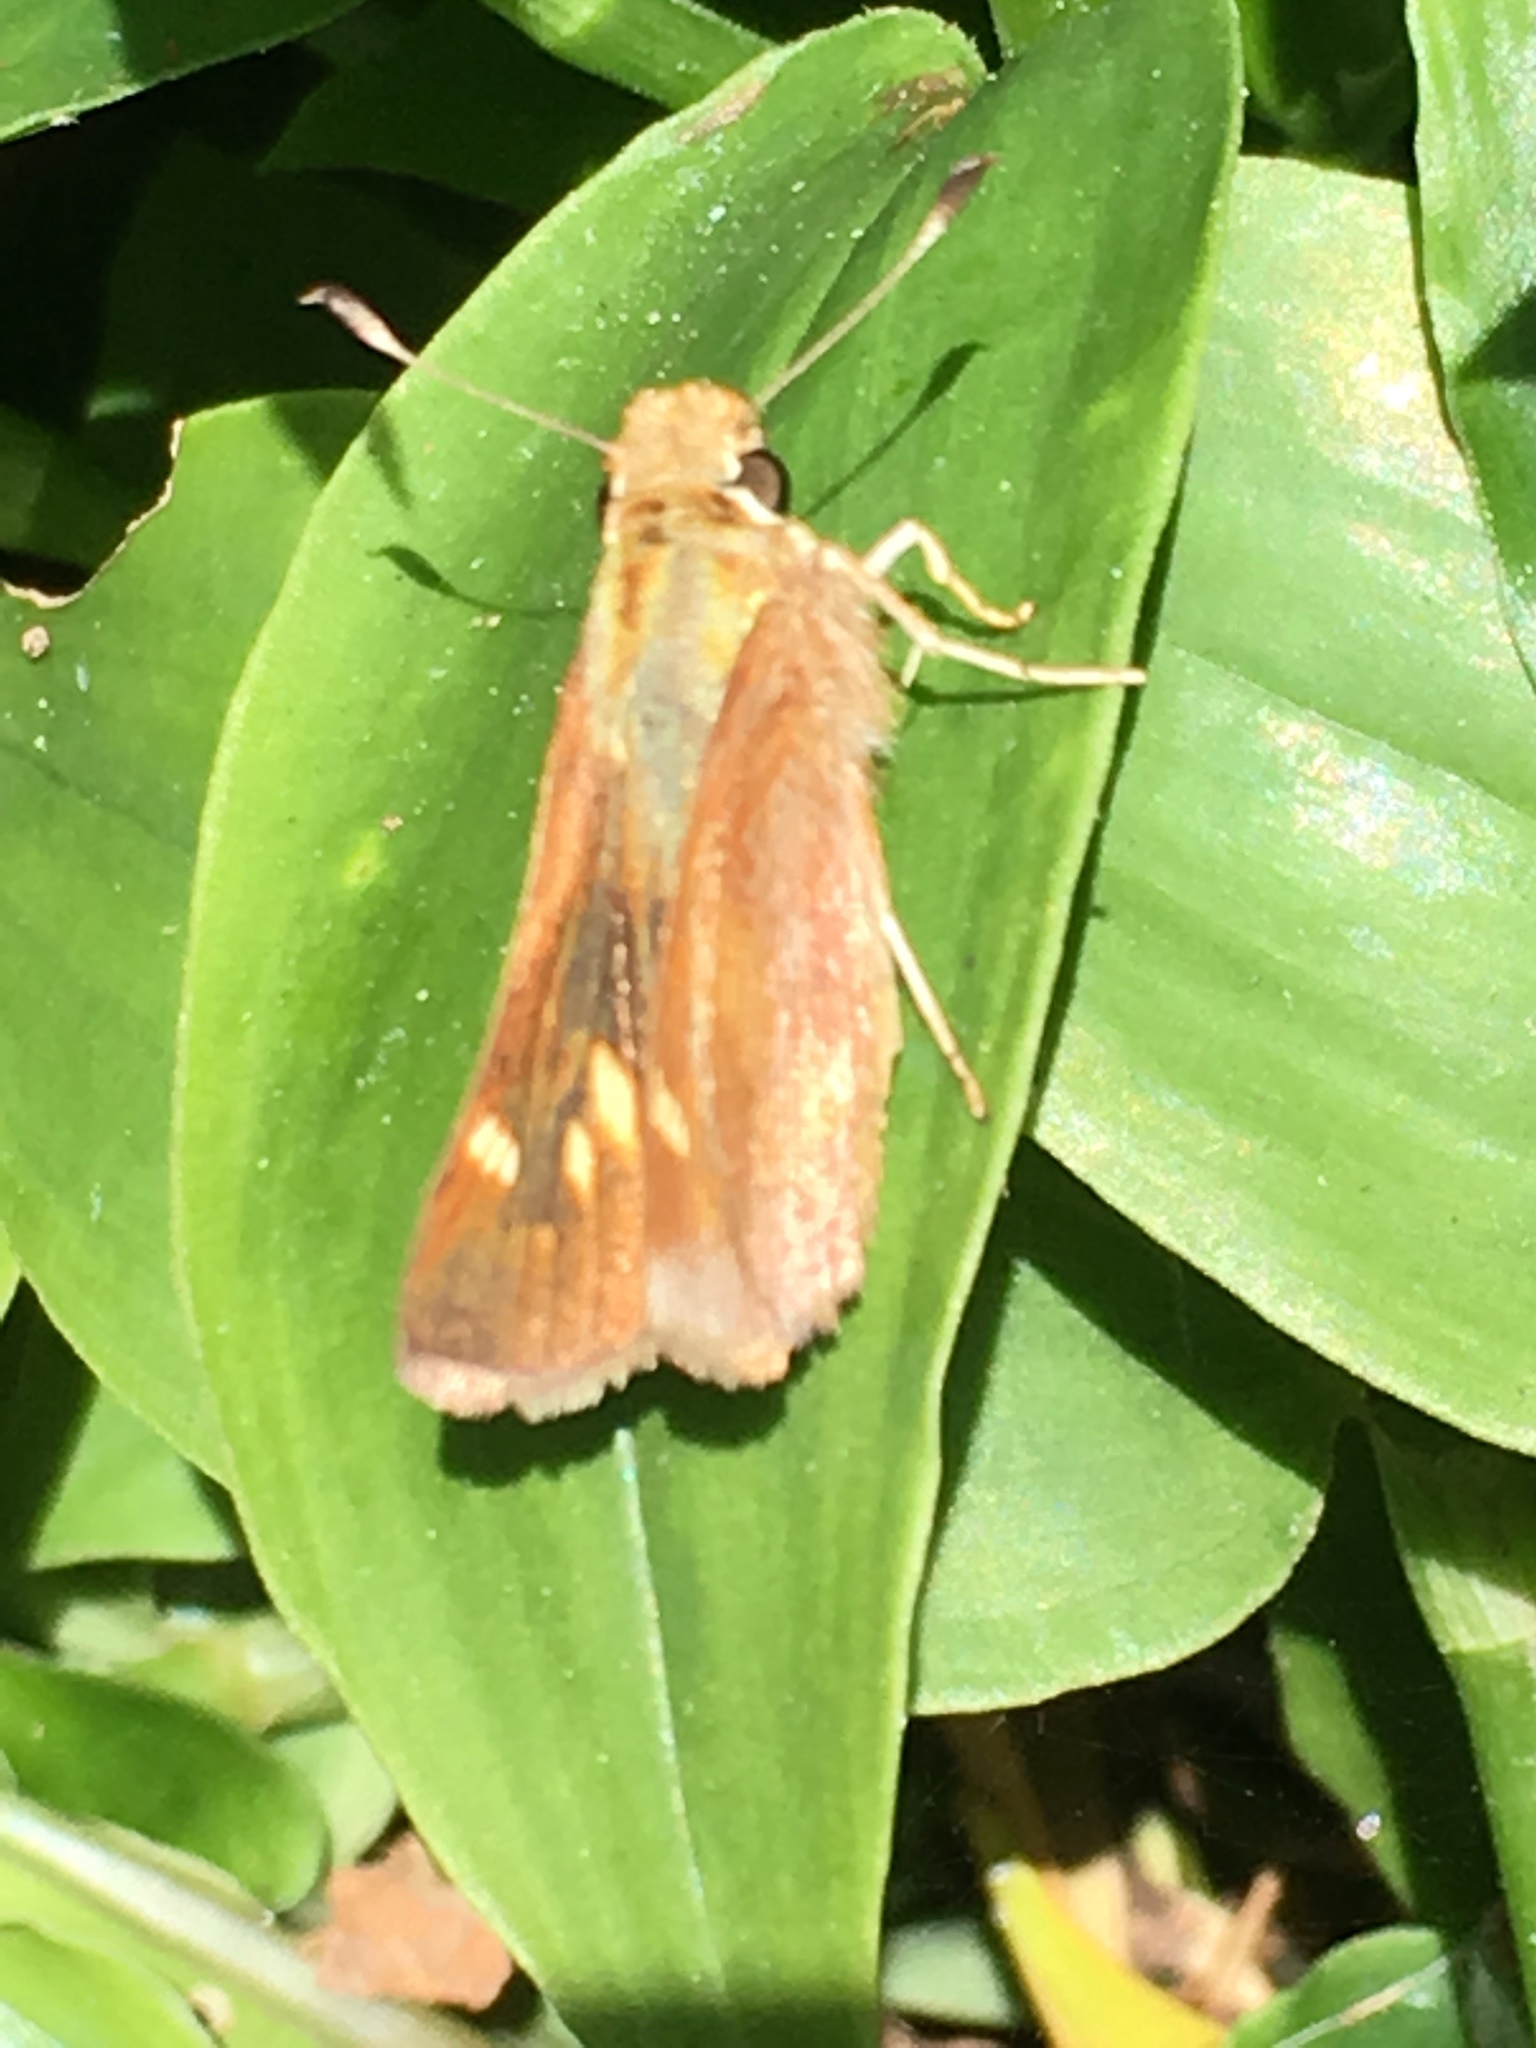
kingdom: Animalia
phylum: Arthropoda
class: Insecta
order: Lepidoptera
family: Hesperiidae
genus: Lon
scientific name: Lon melane
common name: Umber skipper
